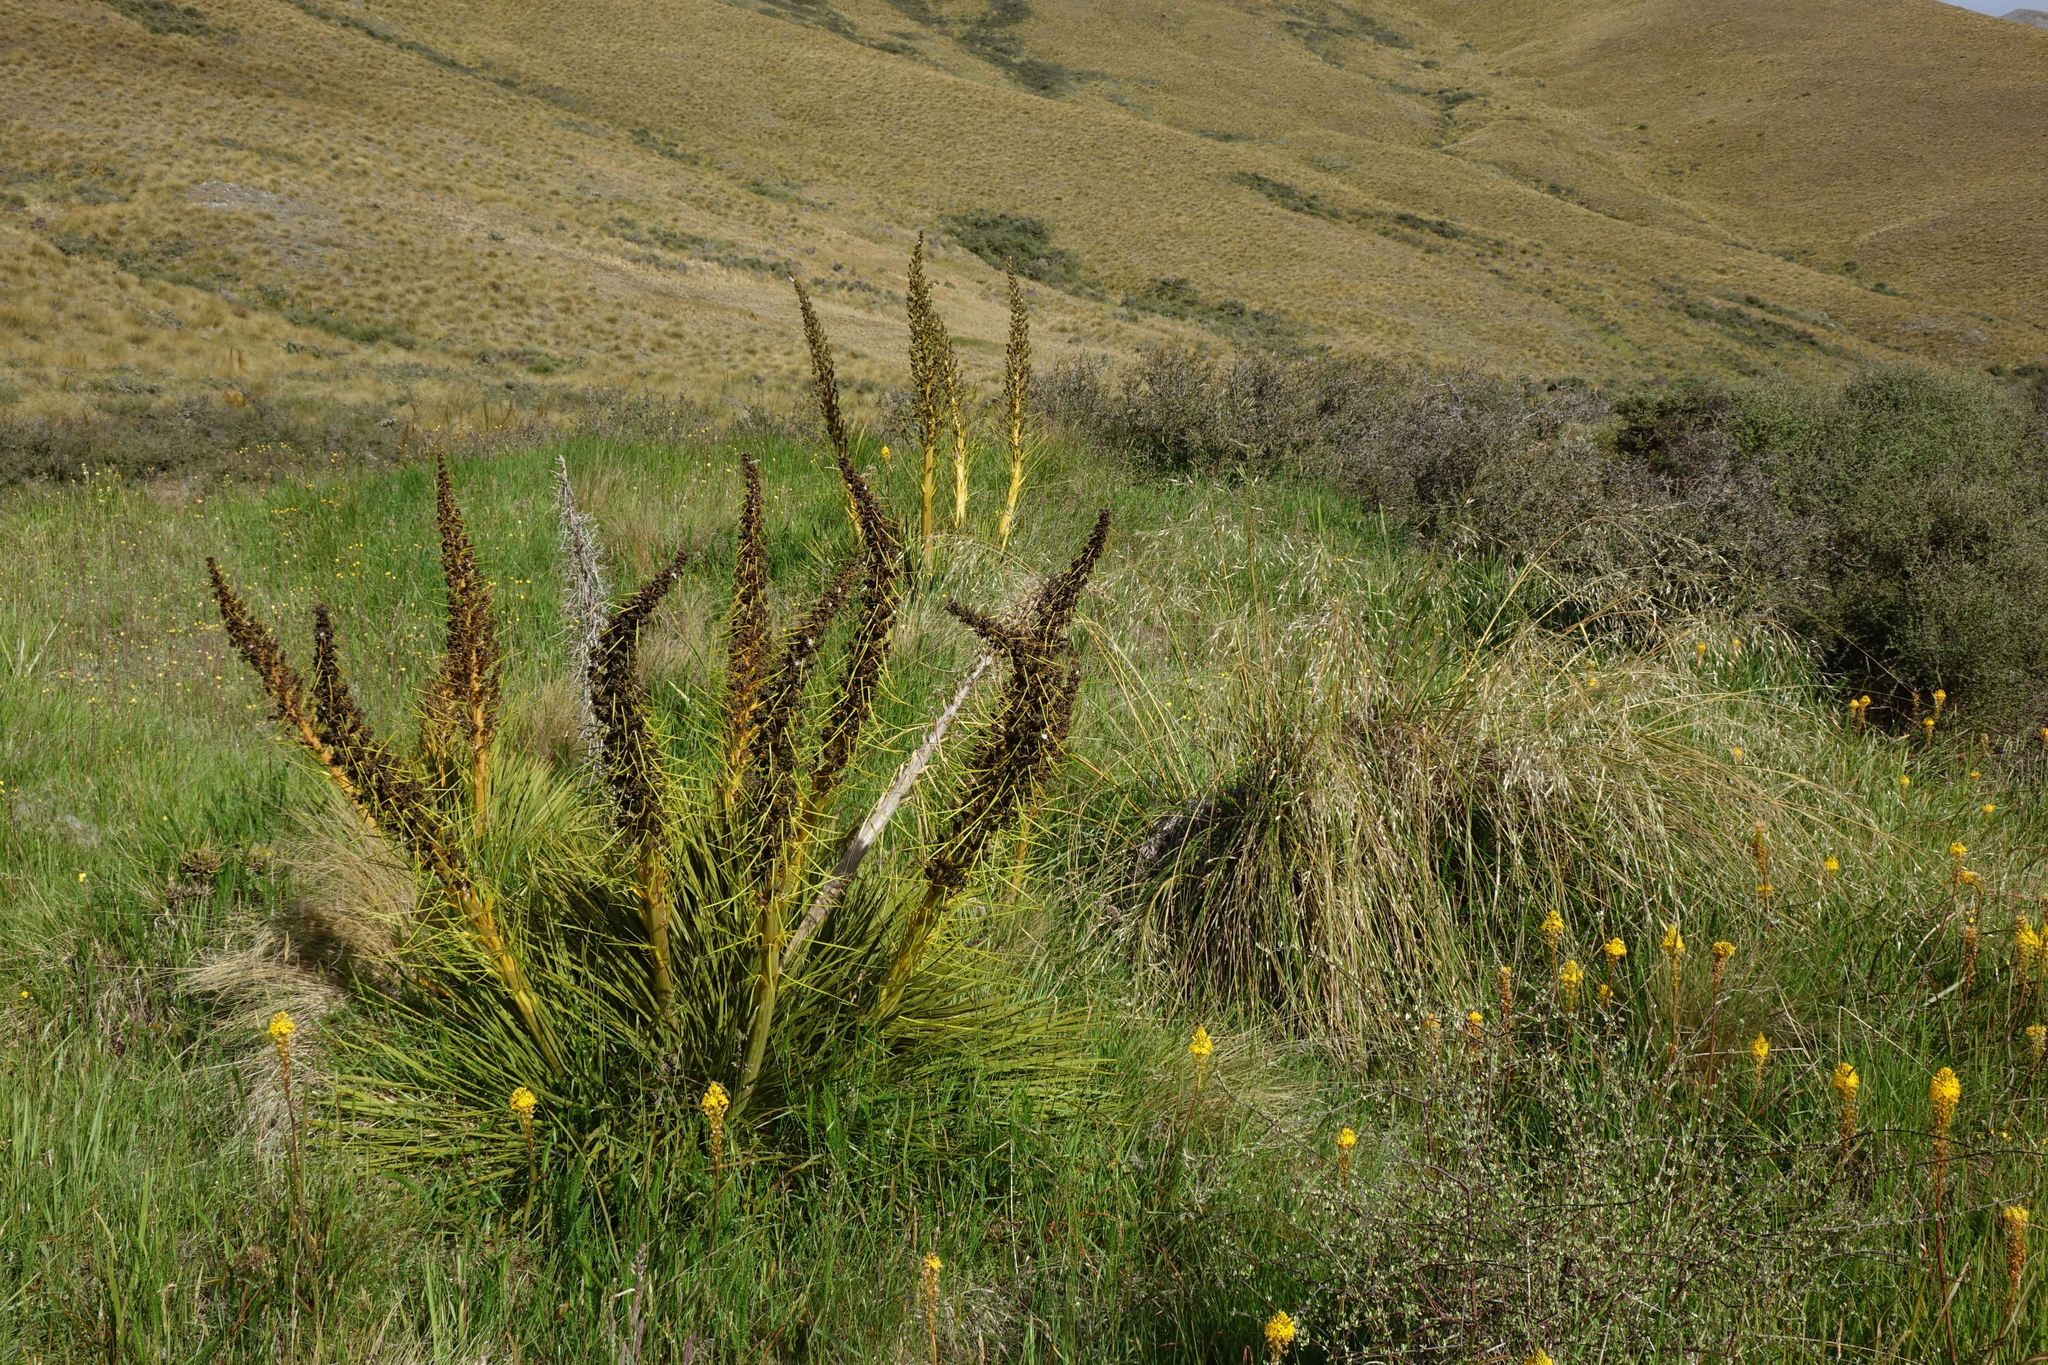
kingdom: Plantae
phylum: Tracheophyta
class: Magnoliopsida
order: Apiales
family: Apiaceae
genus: Aciphylla
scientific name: Aciphylla aurea
